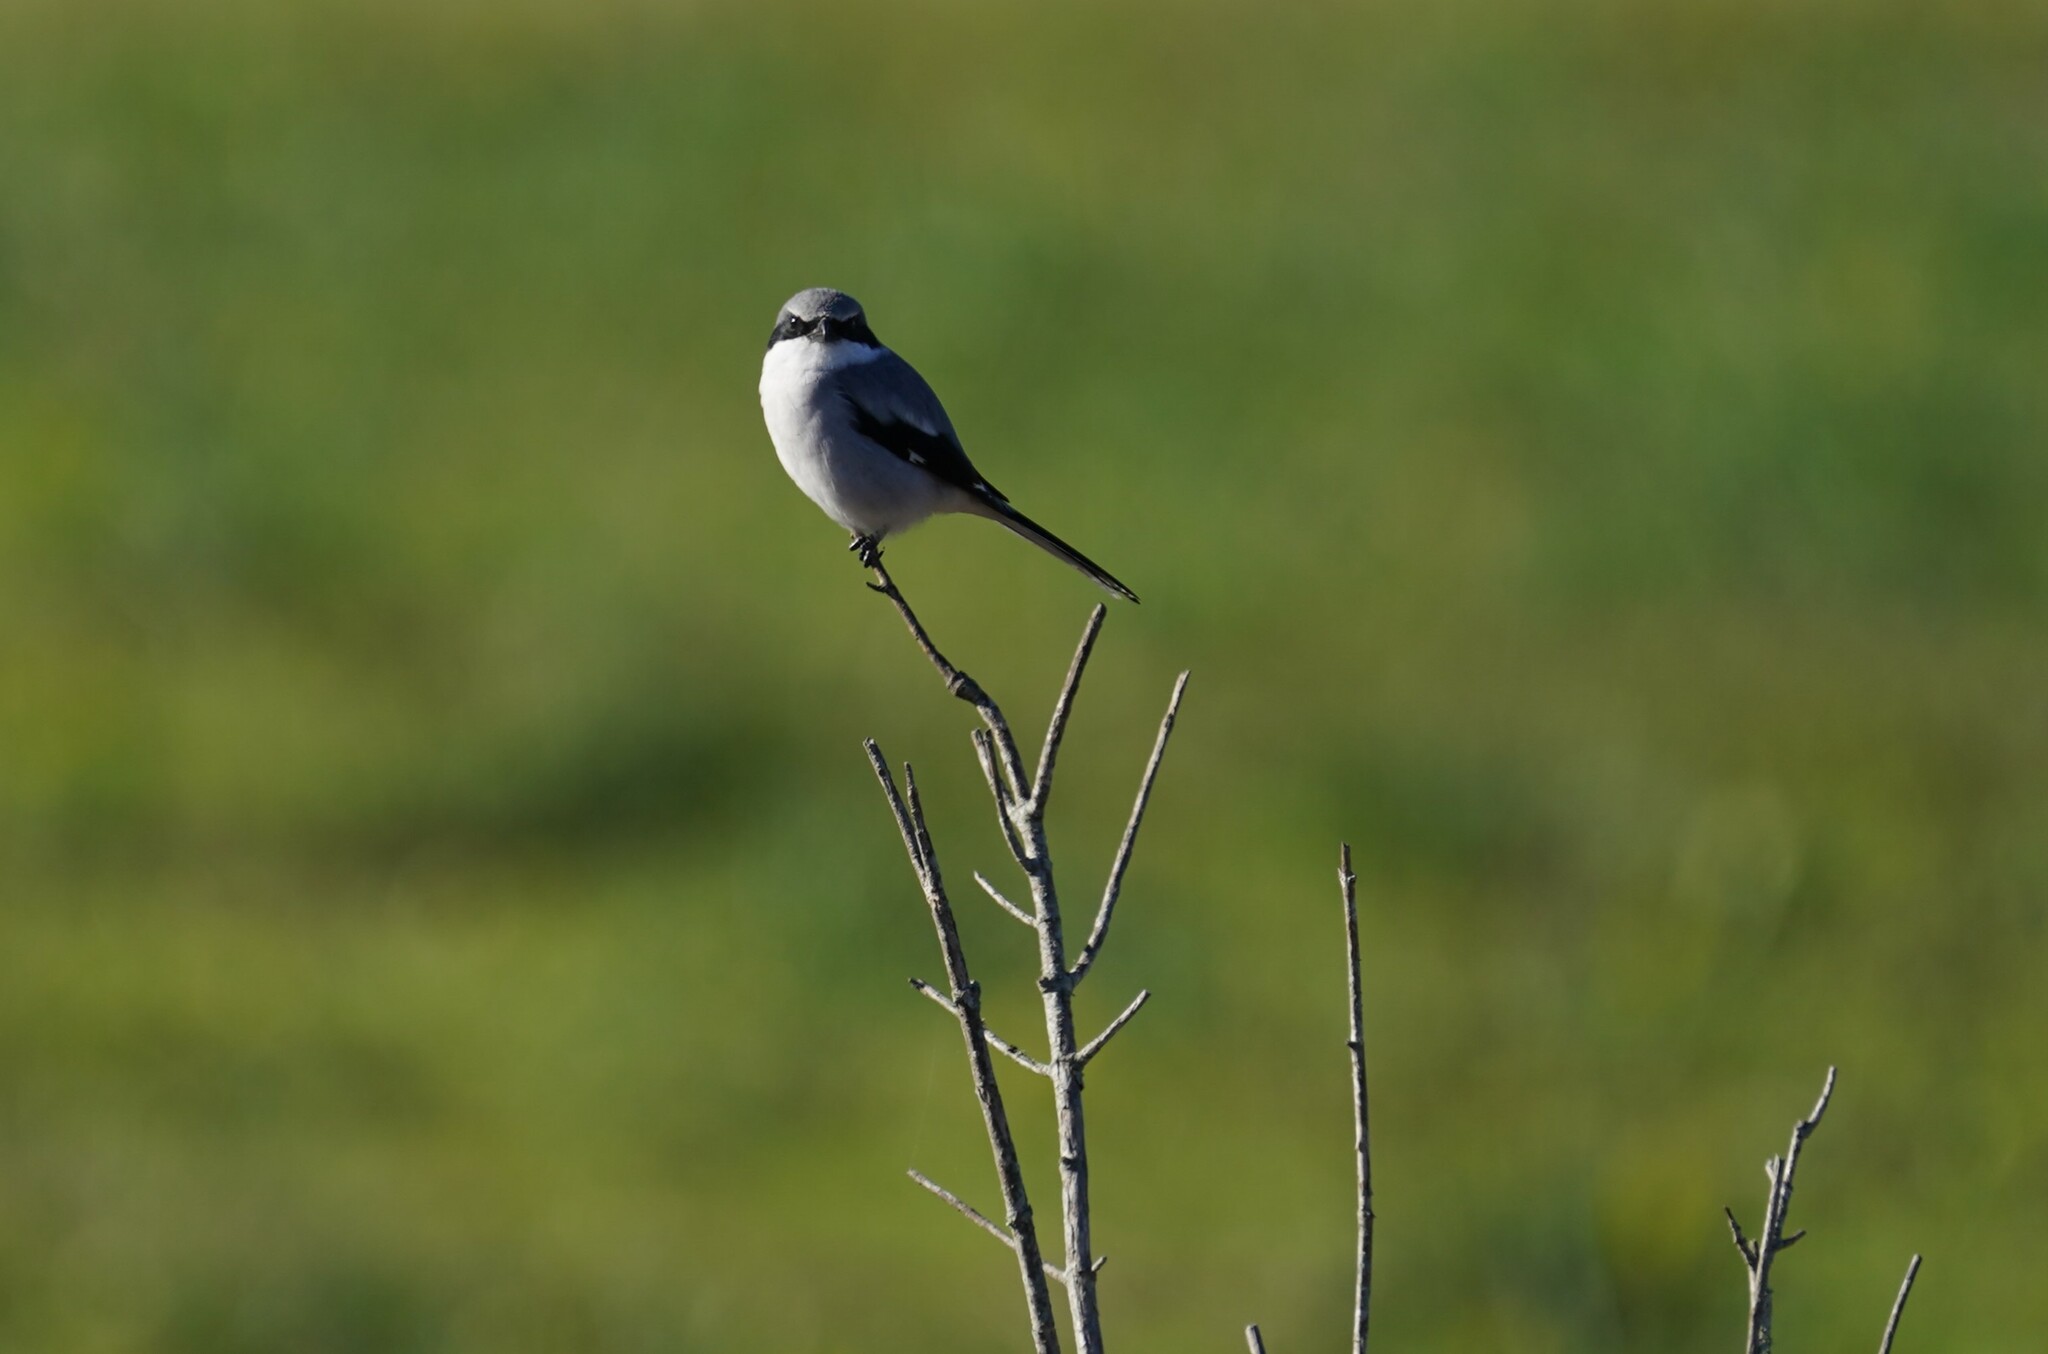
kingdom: Animalia
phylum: Chordata
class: Aves
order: Passeriformes
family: Laniidae
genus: Lanius
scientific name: Lanius ludovicianus
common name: Loggerhead shrike
